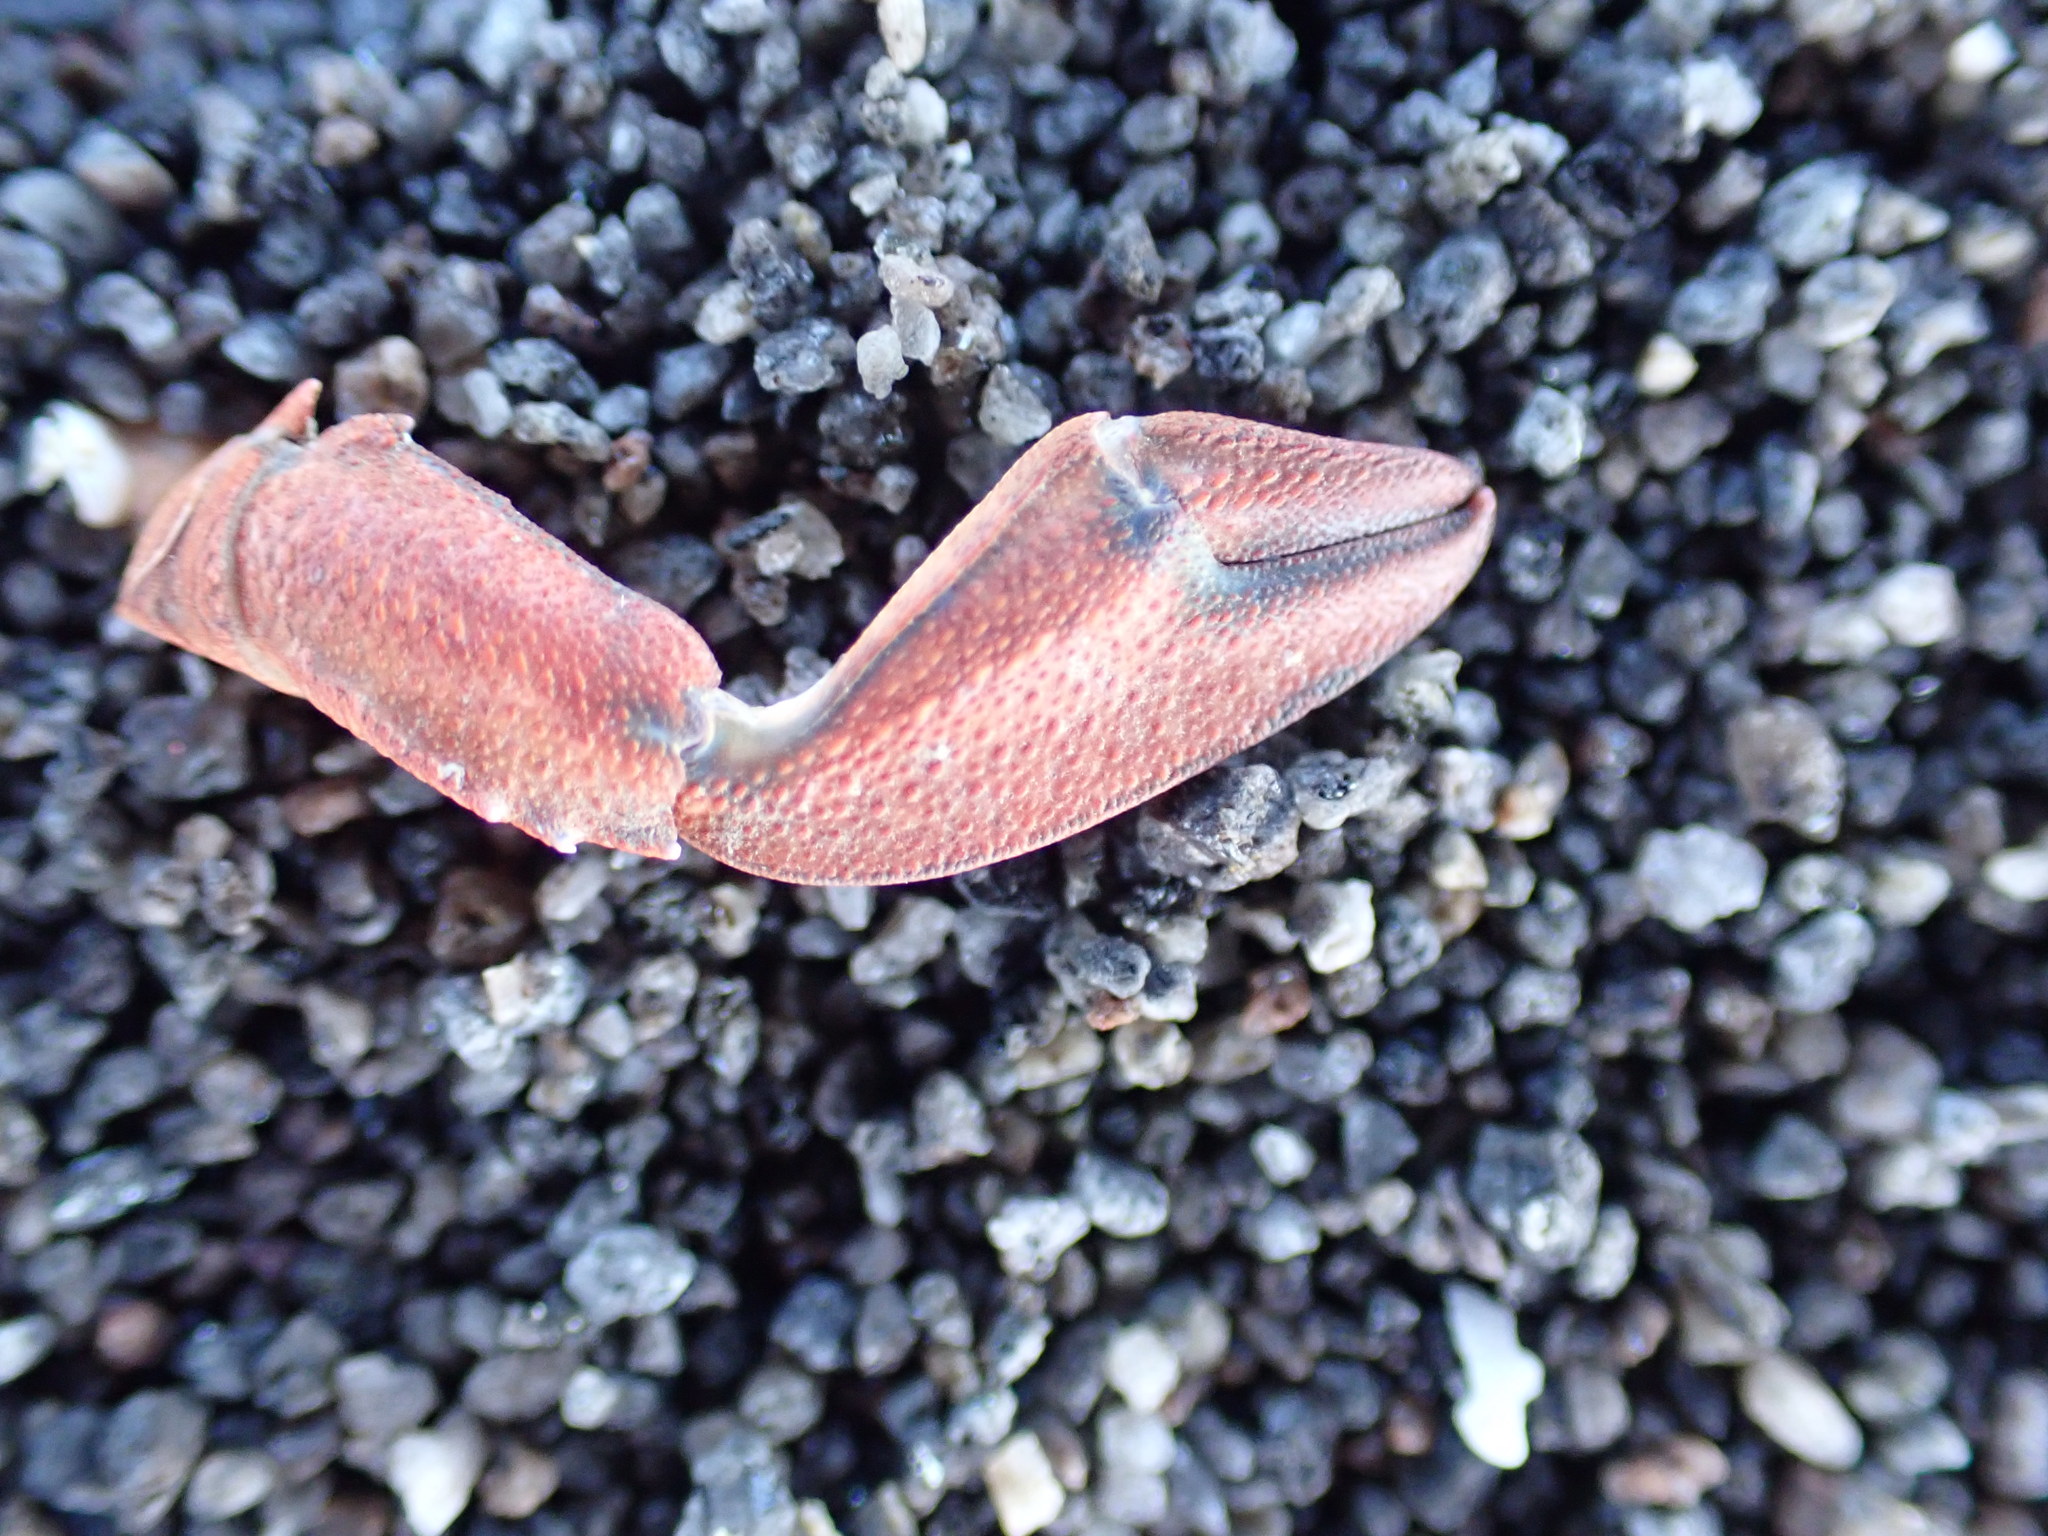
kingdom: Animalia
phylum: Arthropoda
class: Malacostraca
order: Decapoda
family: Porcellanidae
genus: Petrolisthes
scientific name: Petrolisthes elongatus
